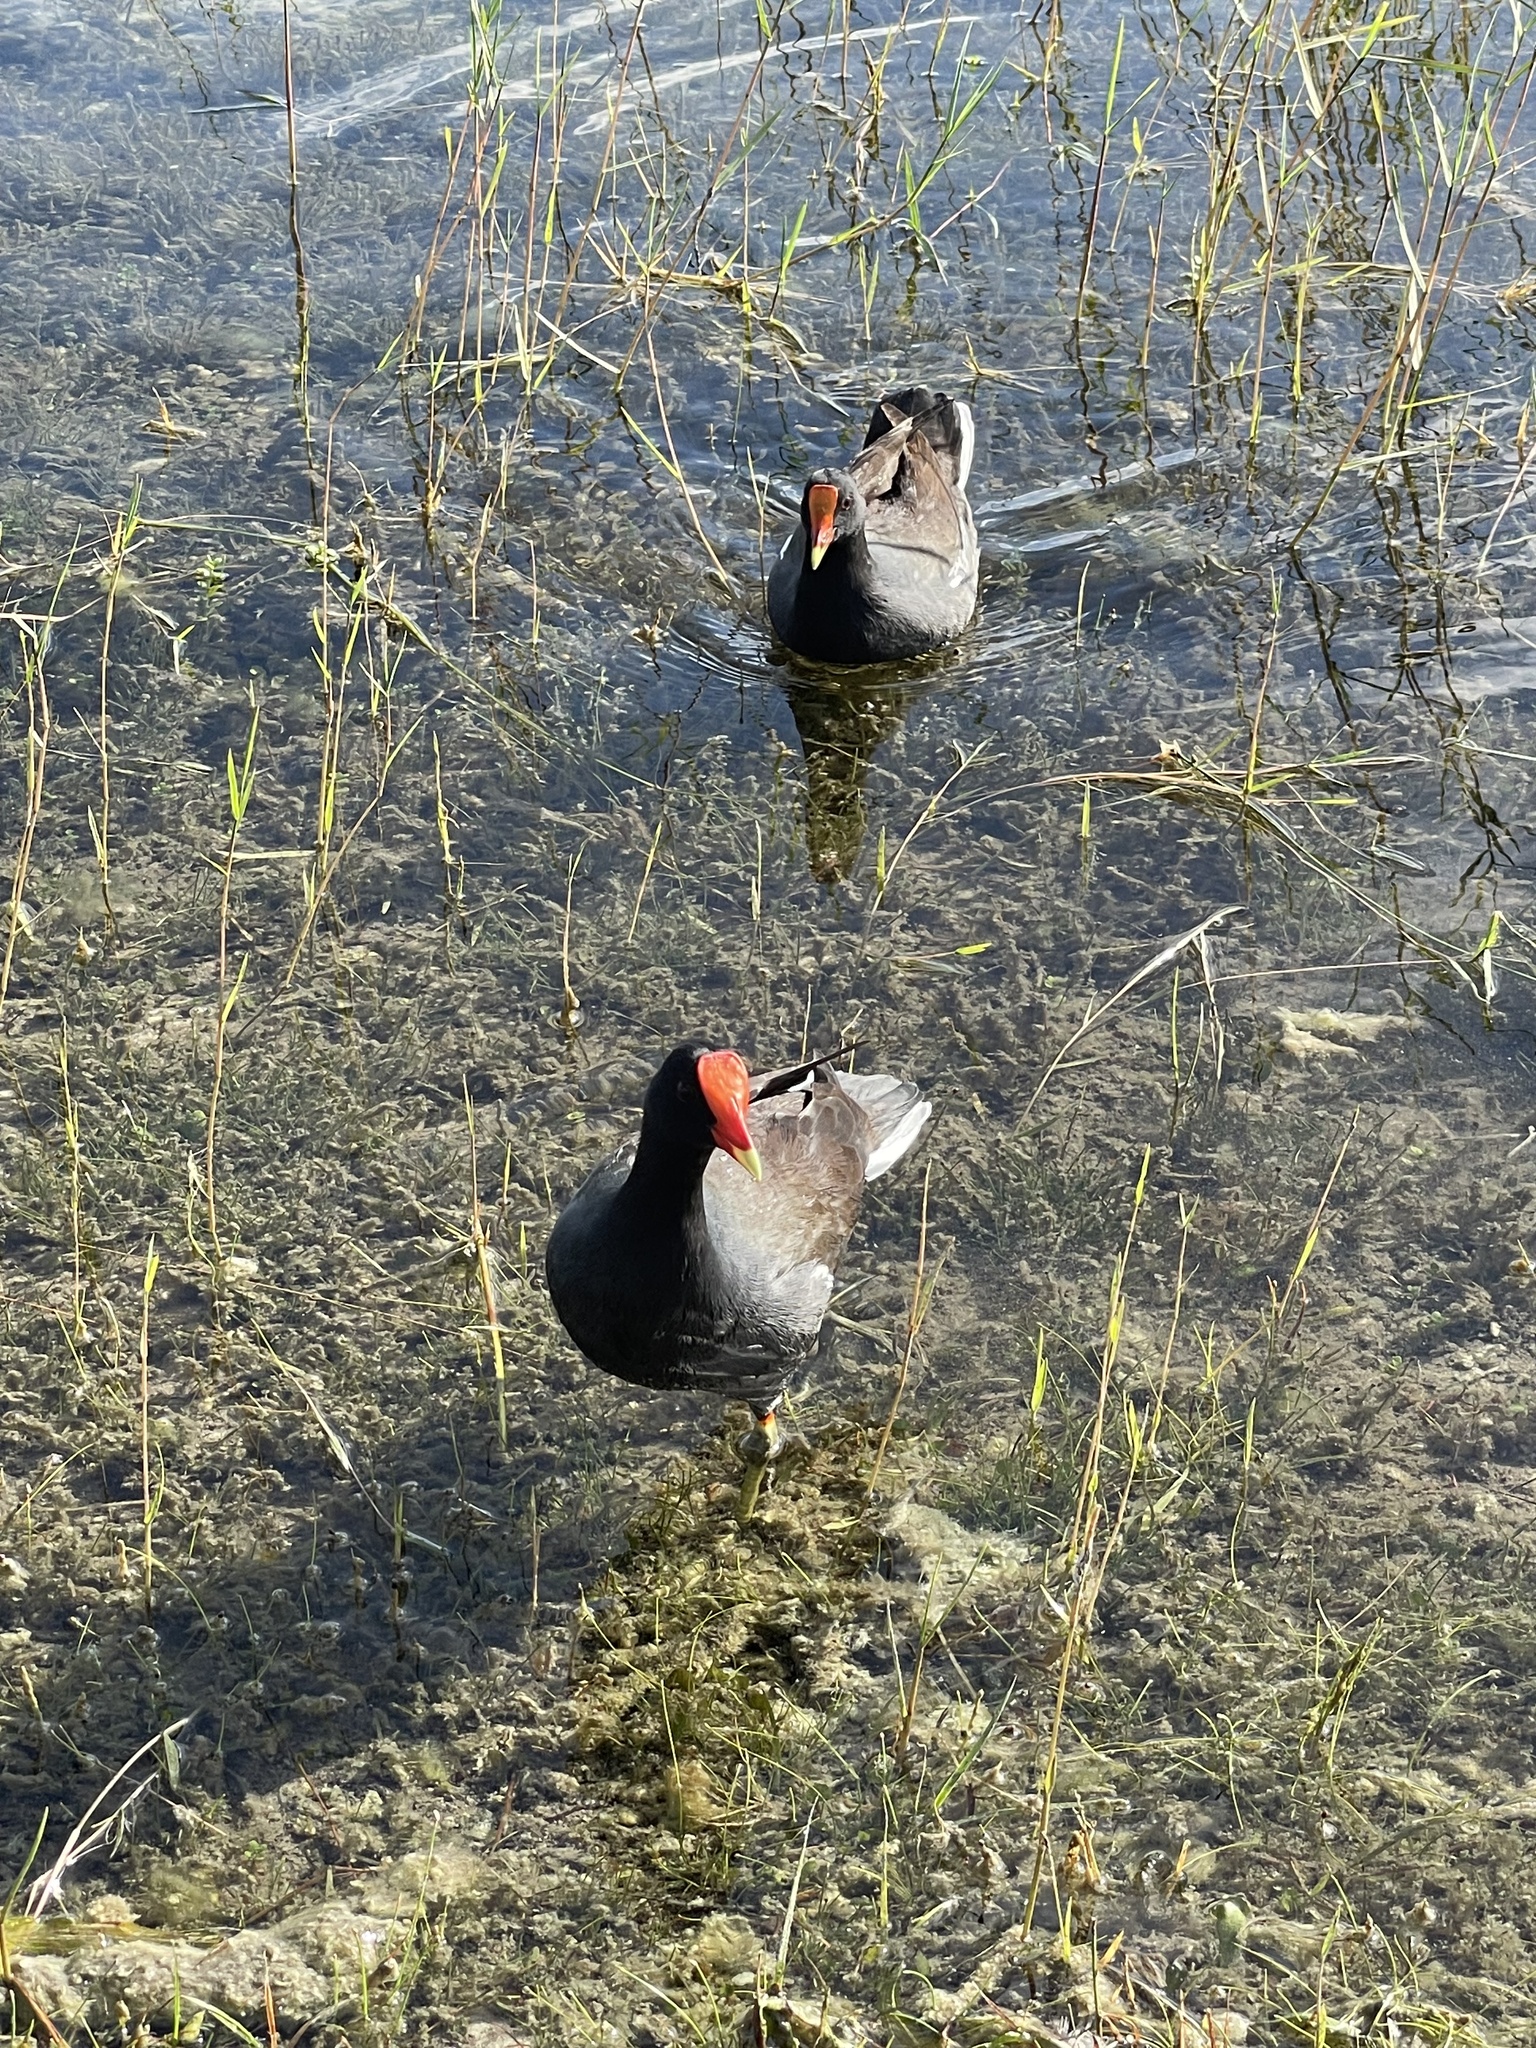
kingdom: Animalia
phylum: Chordata
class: Aves
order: Gruiformes
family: Rallidae
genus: Gallinula
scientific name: Gallinula chloropus
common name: Common moorhen
